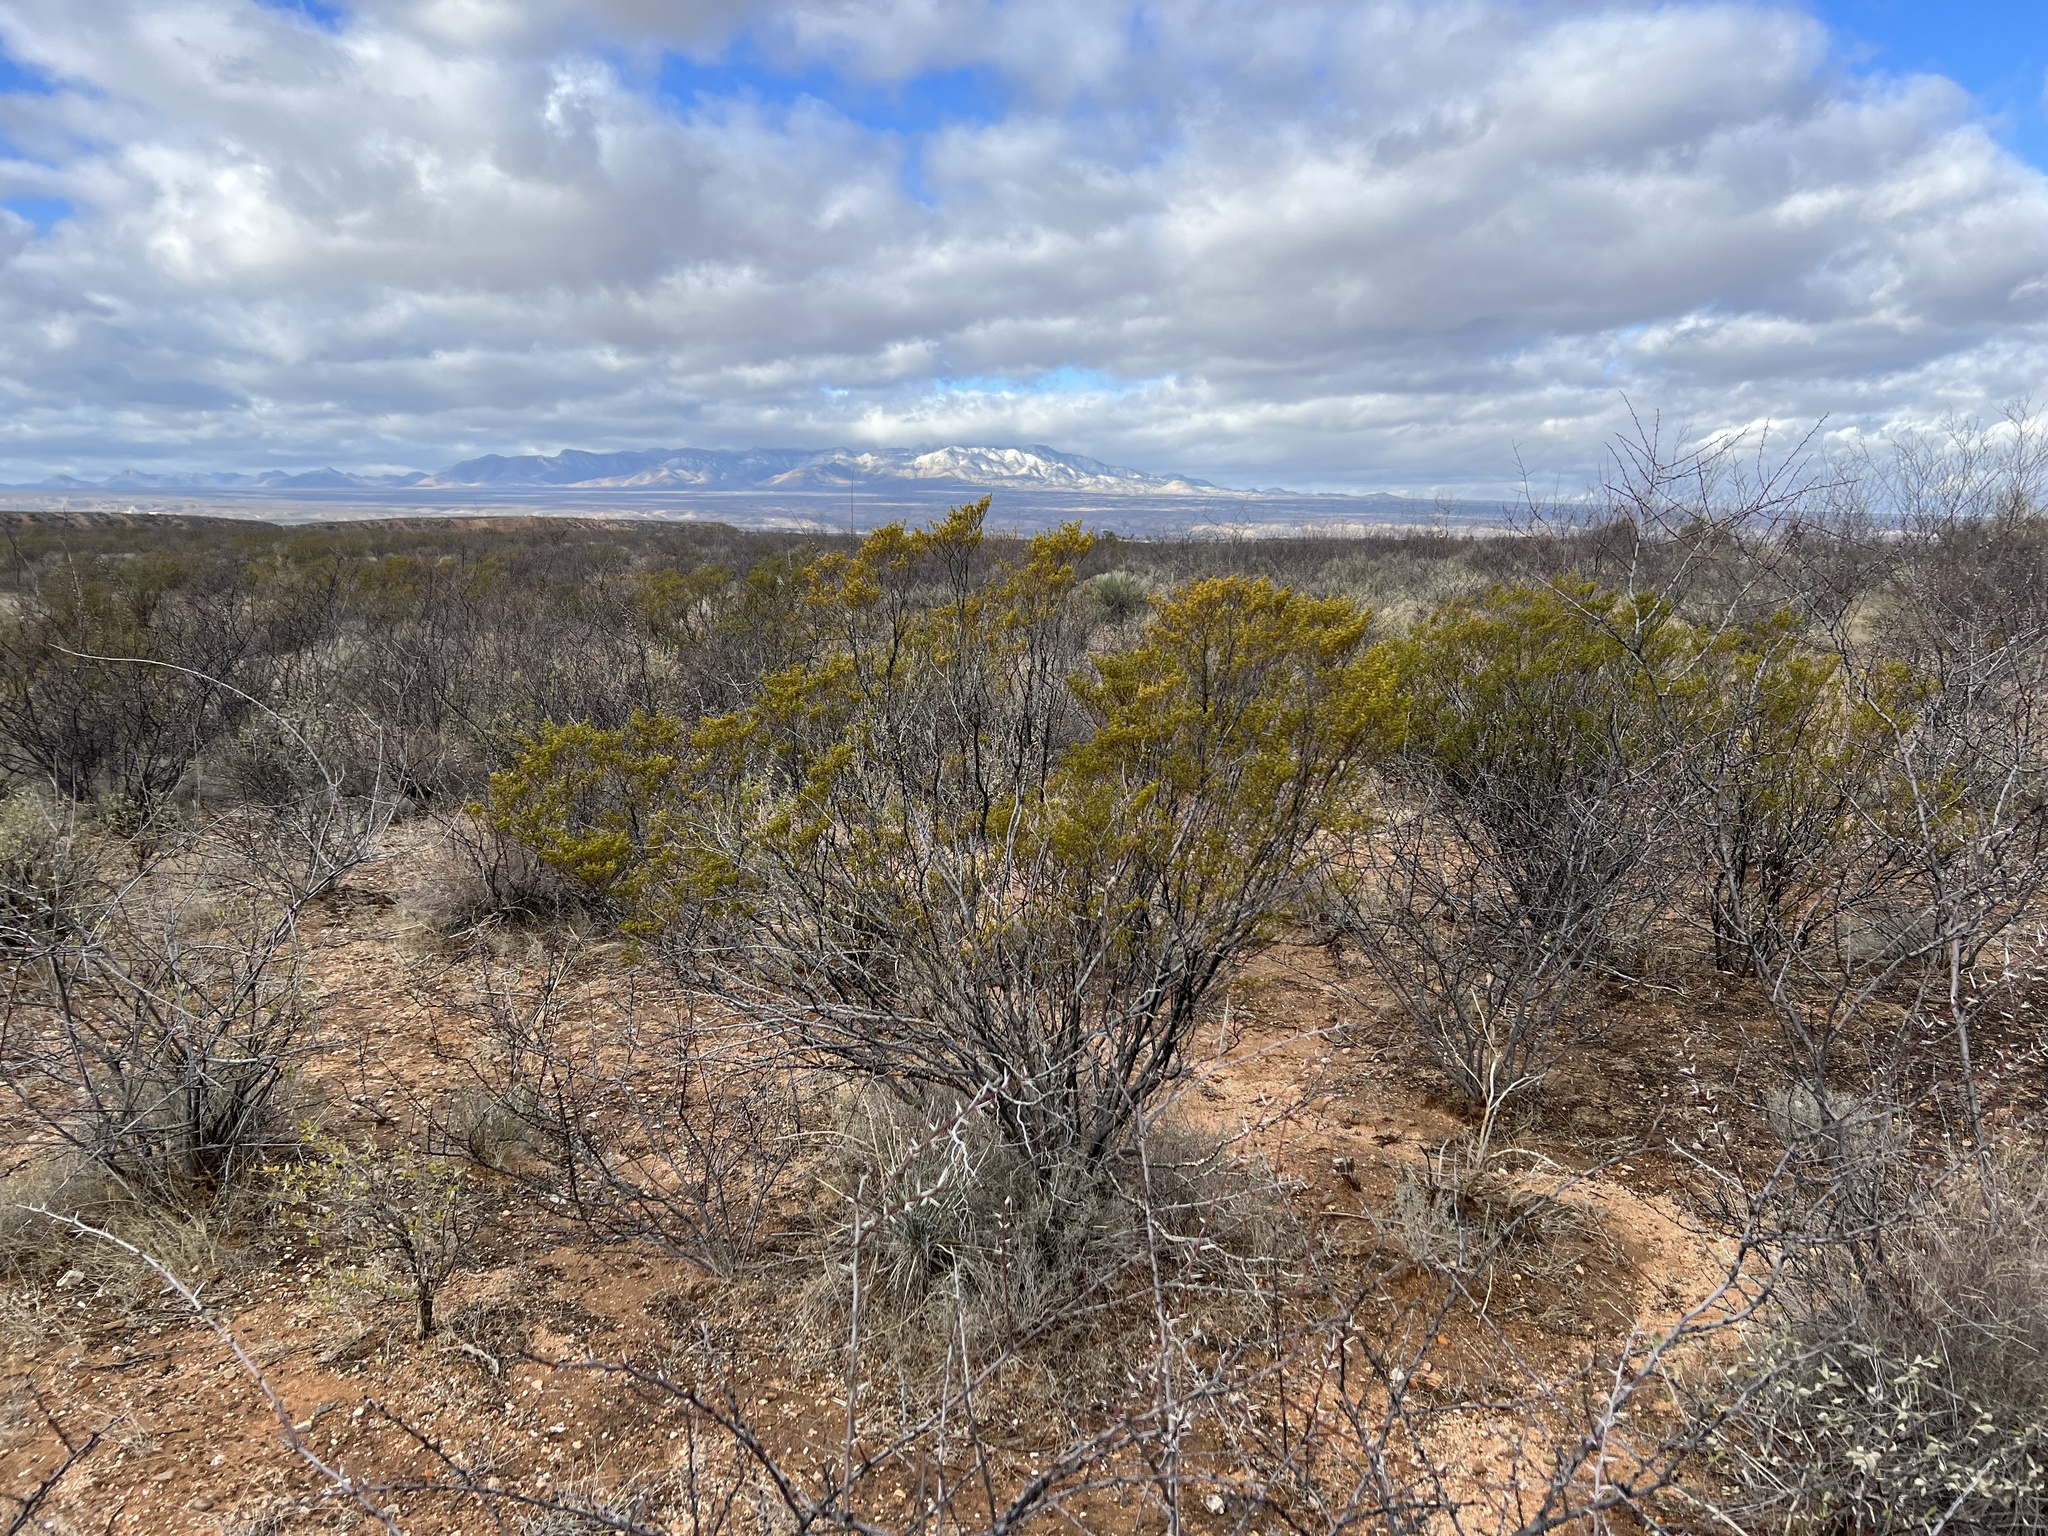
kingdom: Plantae
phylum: Tracheophyta
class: Magnoliopsida
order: Zygophyllales
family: Zygophyllaceae
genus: Larrea
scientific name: Larrea tridentata
